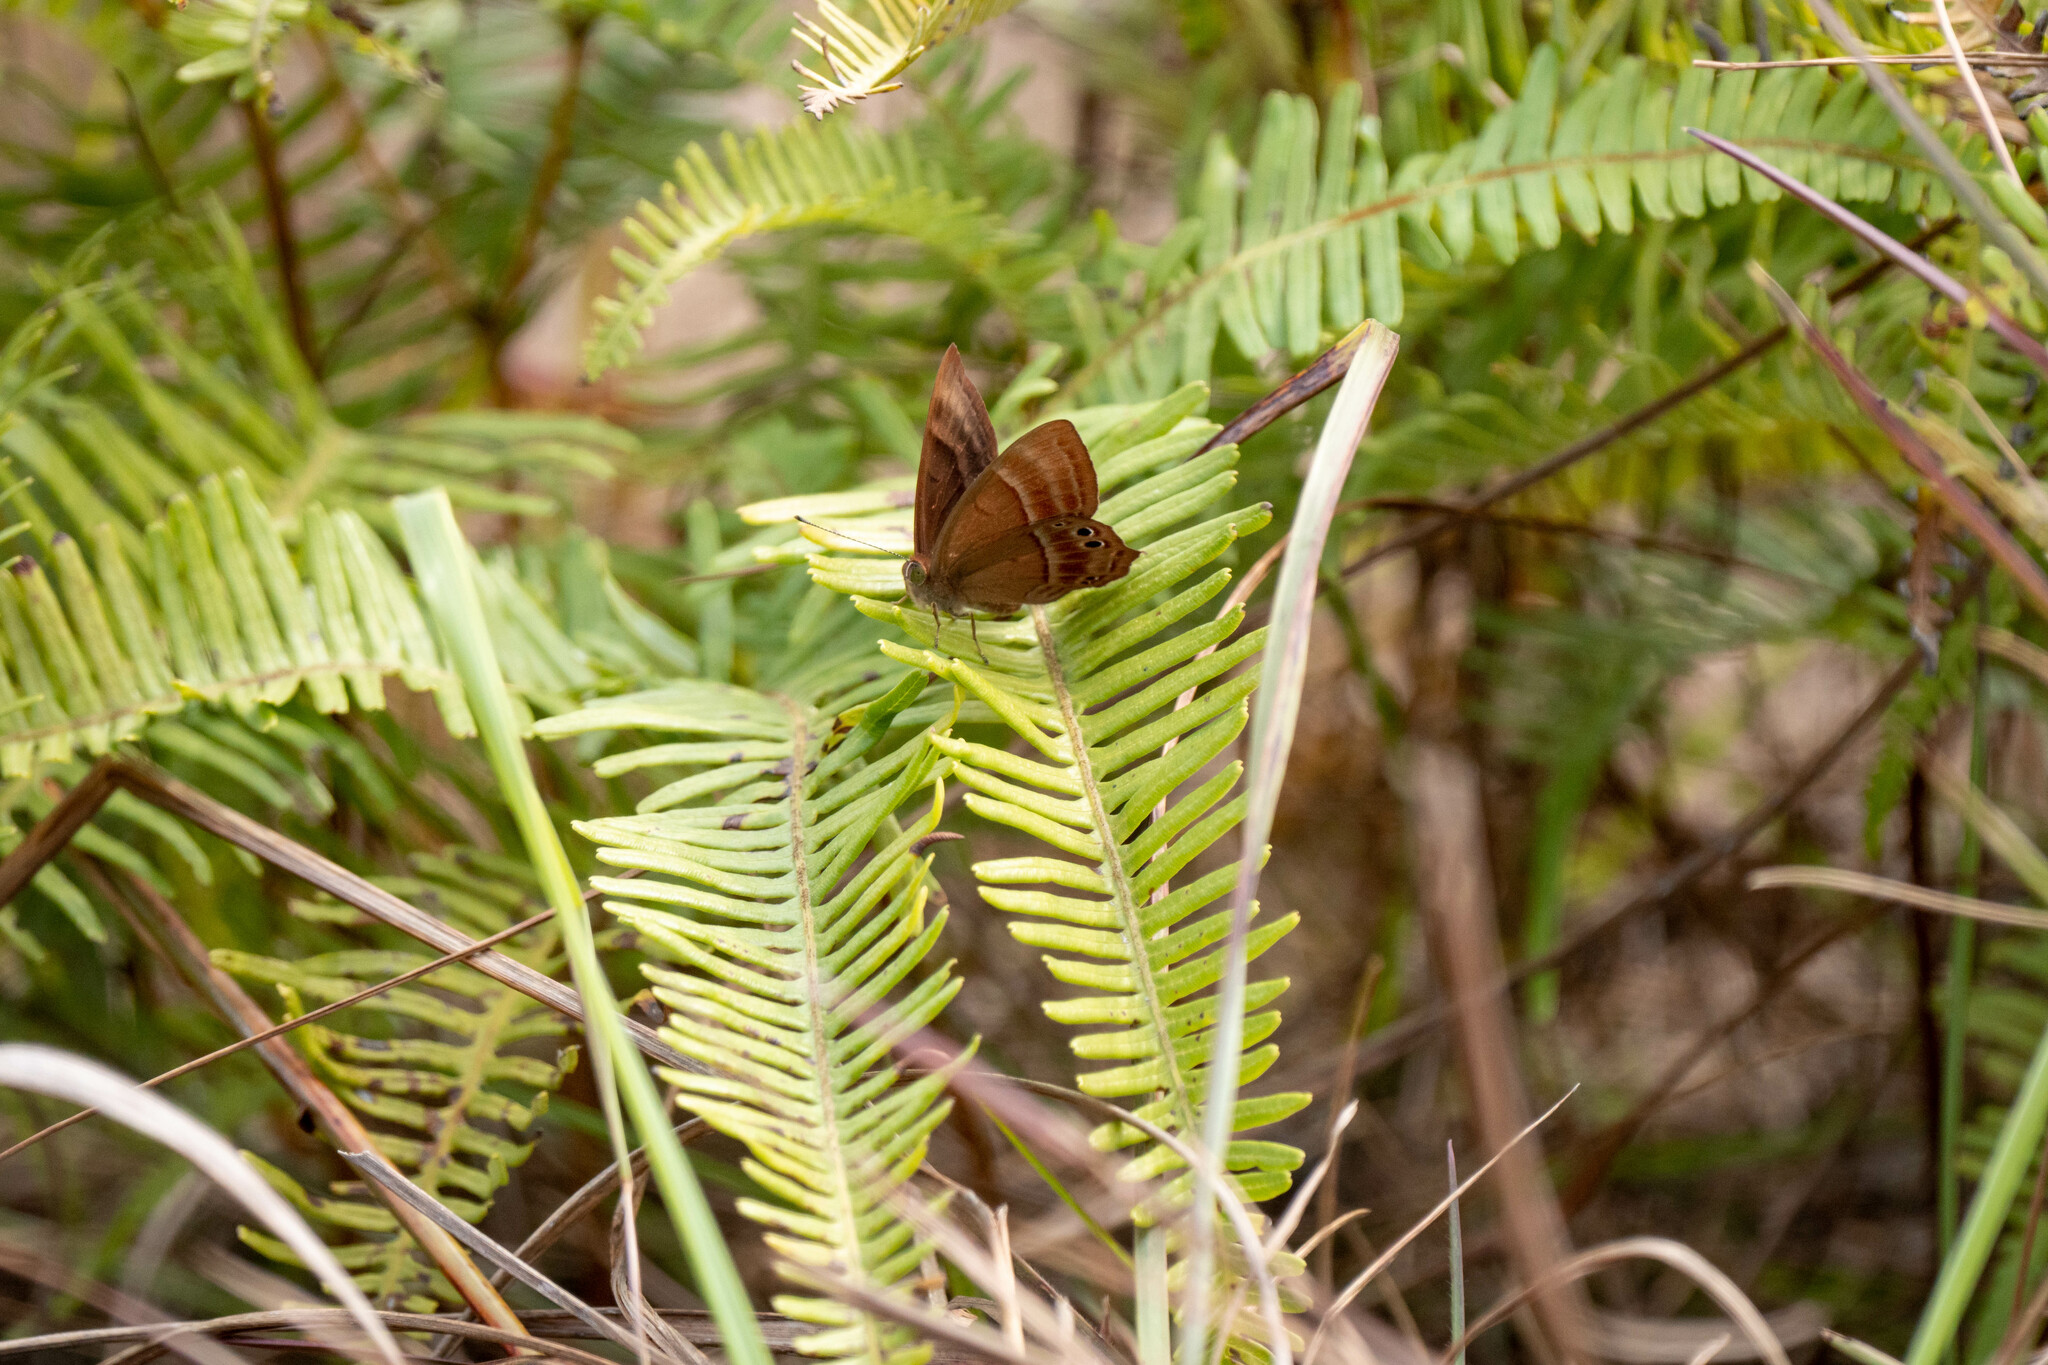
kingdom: Animalia
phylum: Arthropoda
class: Insecta
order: Lepidoptera
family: Lycaenidae
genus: Abisara
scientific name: Abisara echeria
